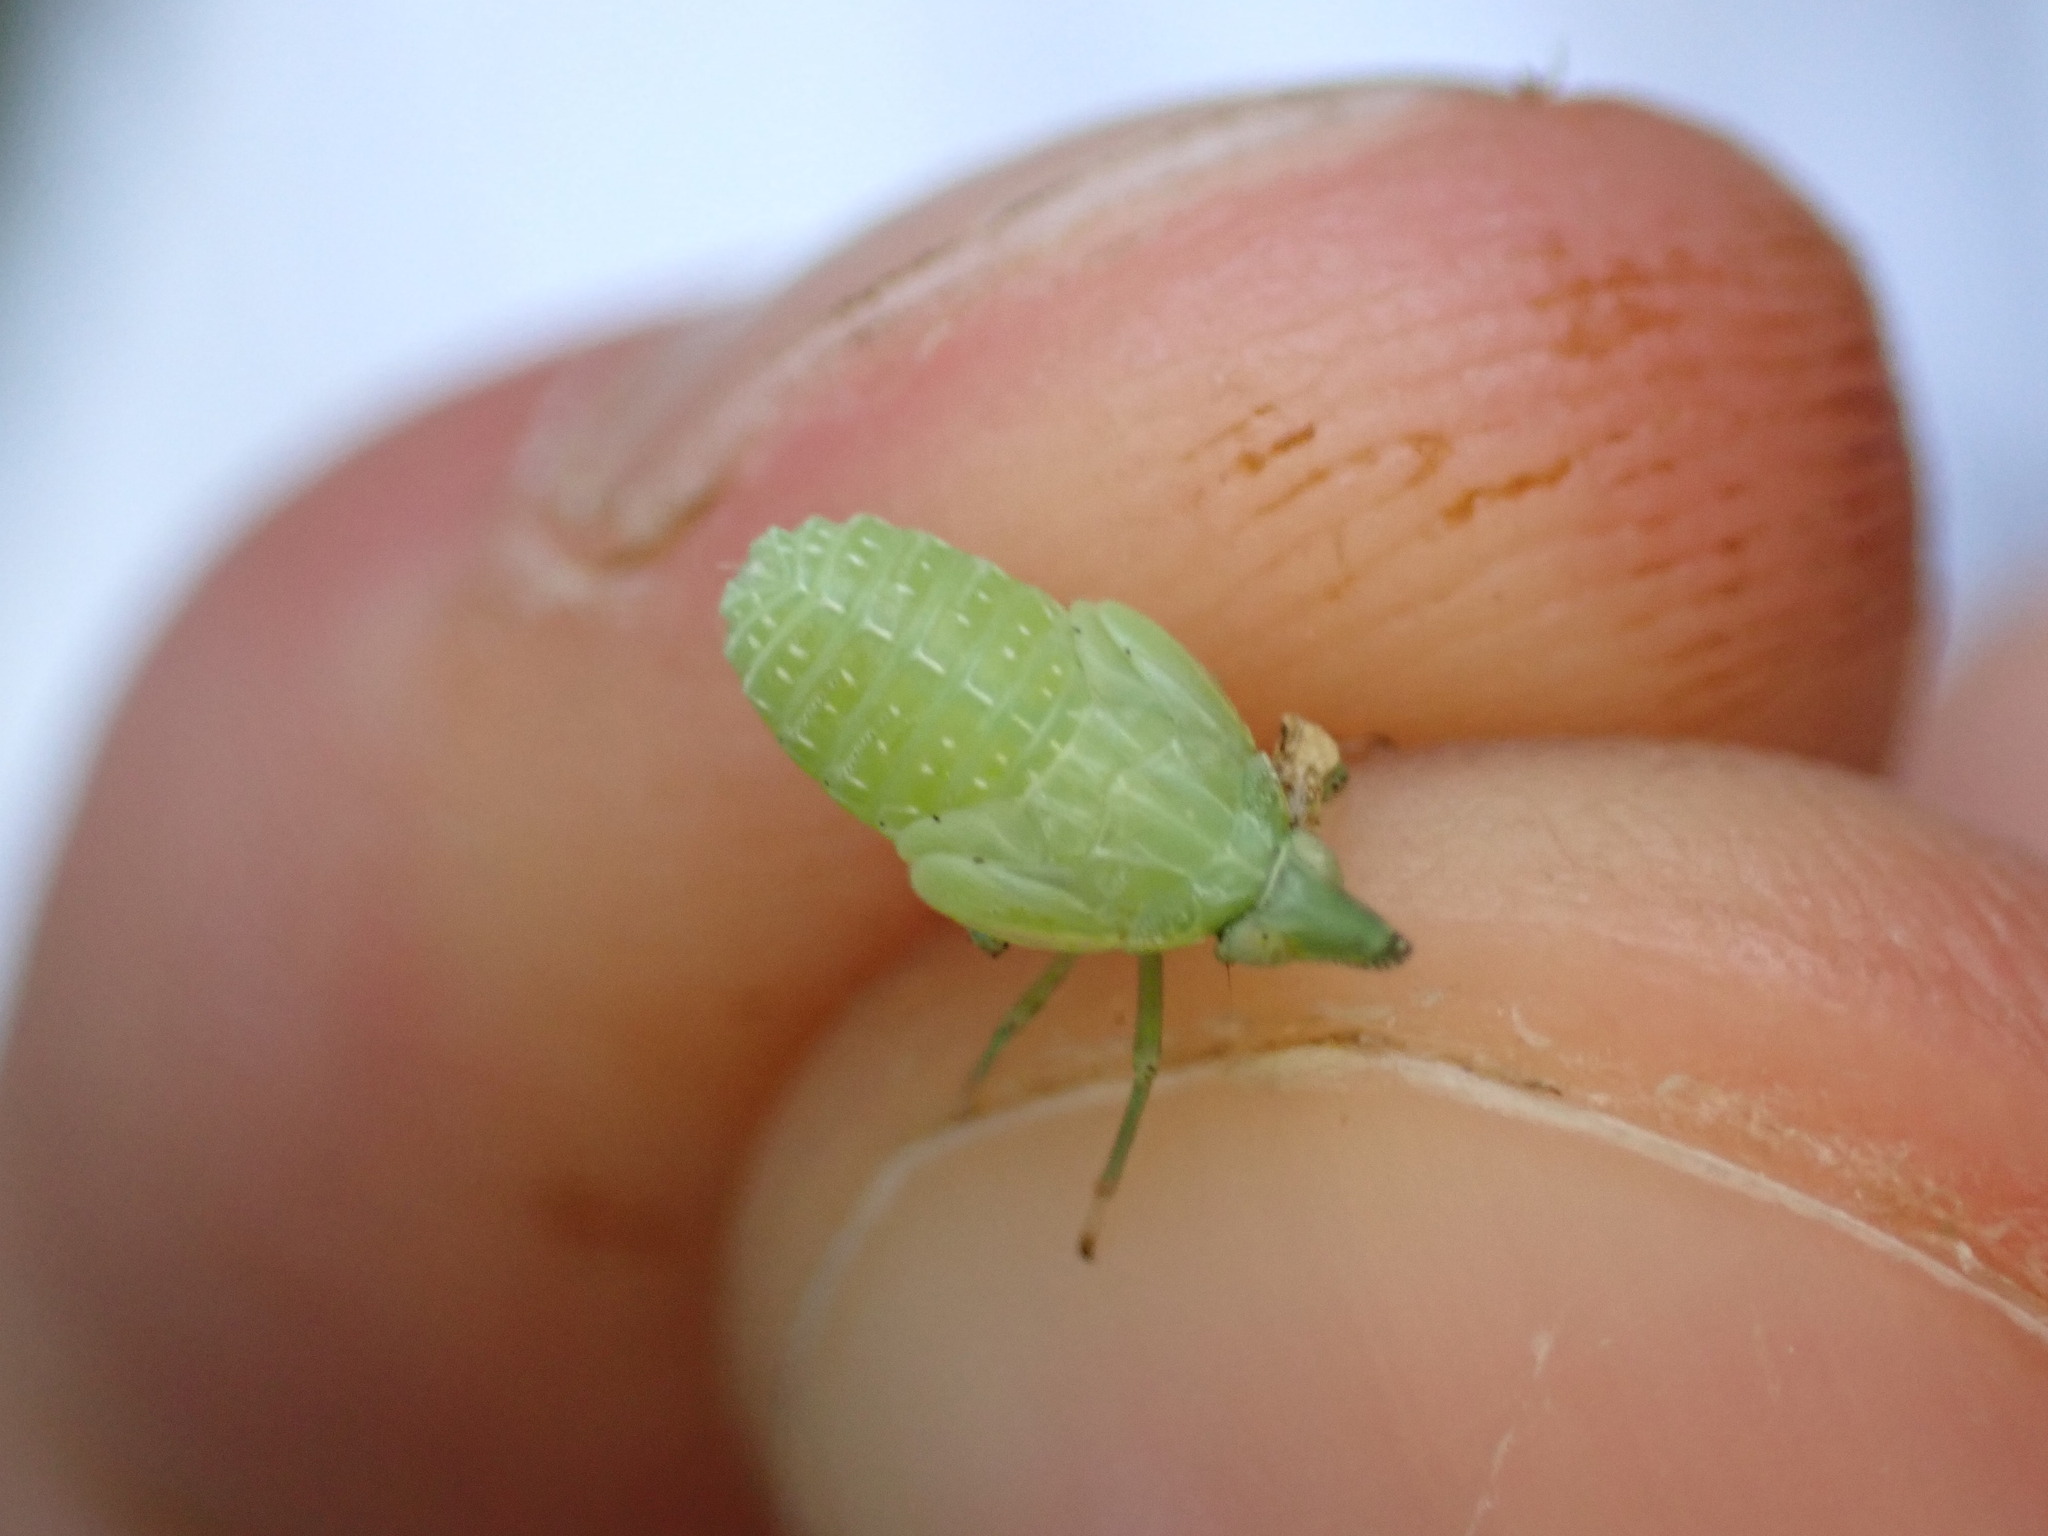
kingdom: Animalia
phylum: Arthropoda
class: Insecta
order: Hemiptera
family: Dictyopharidae
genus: Dictyophara
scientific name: Dictyophara europaea
